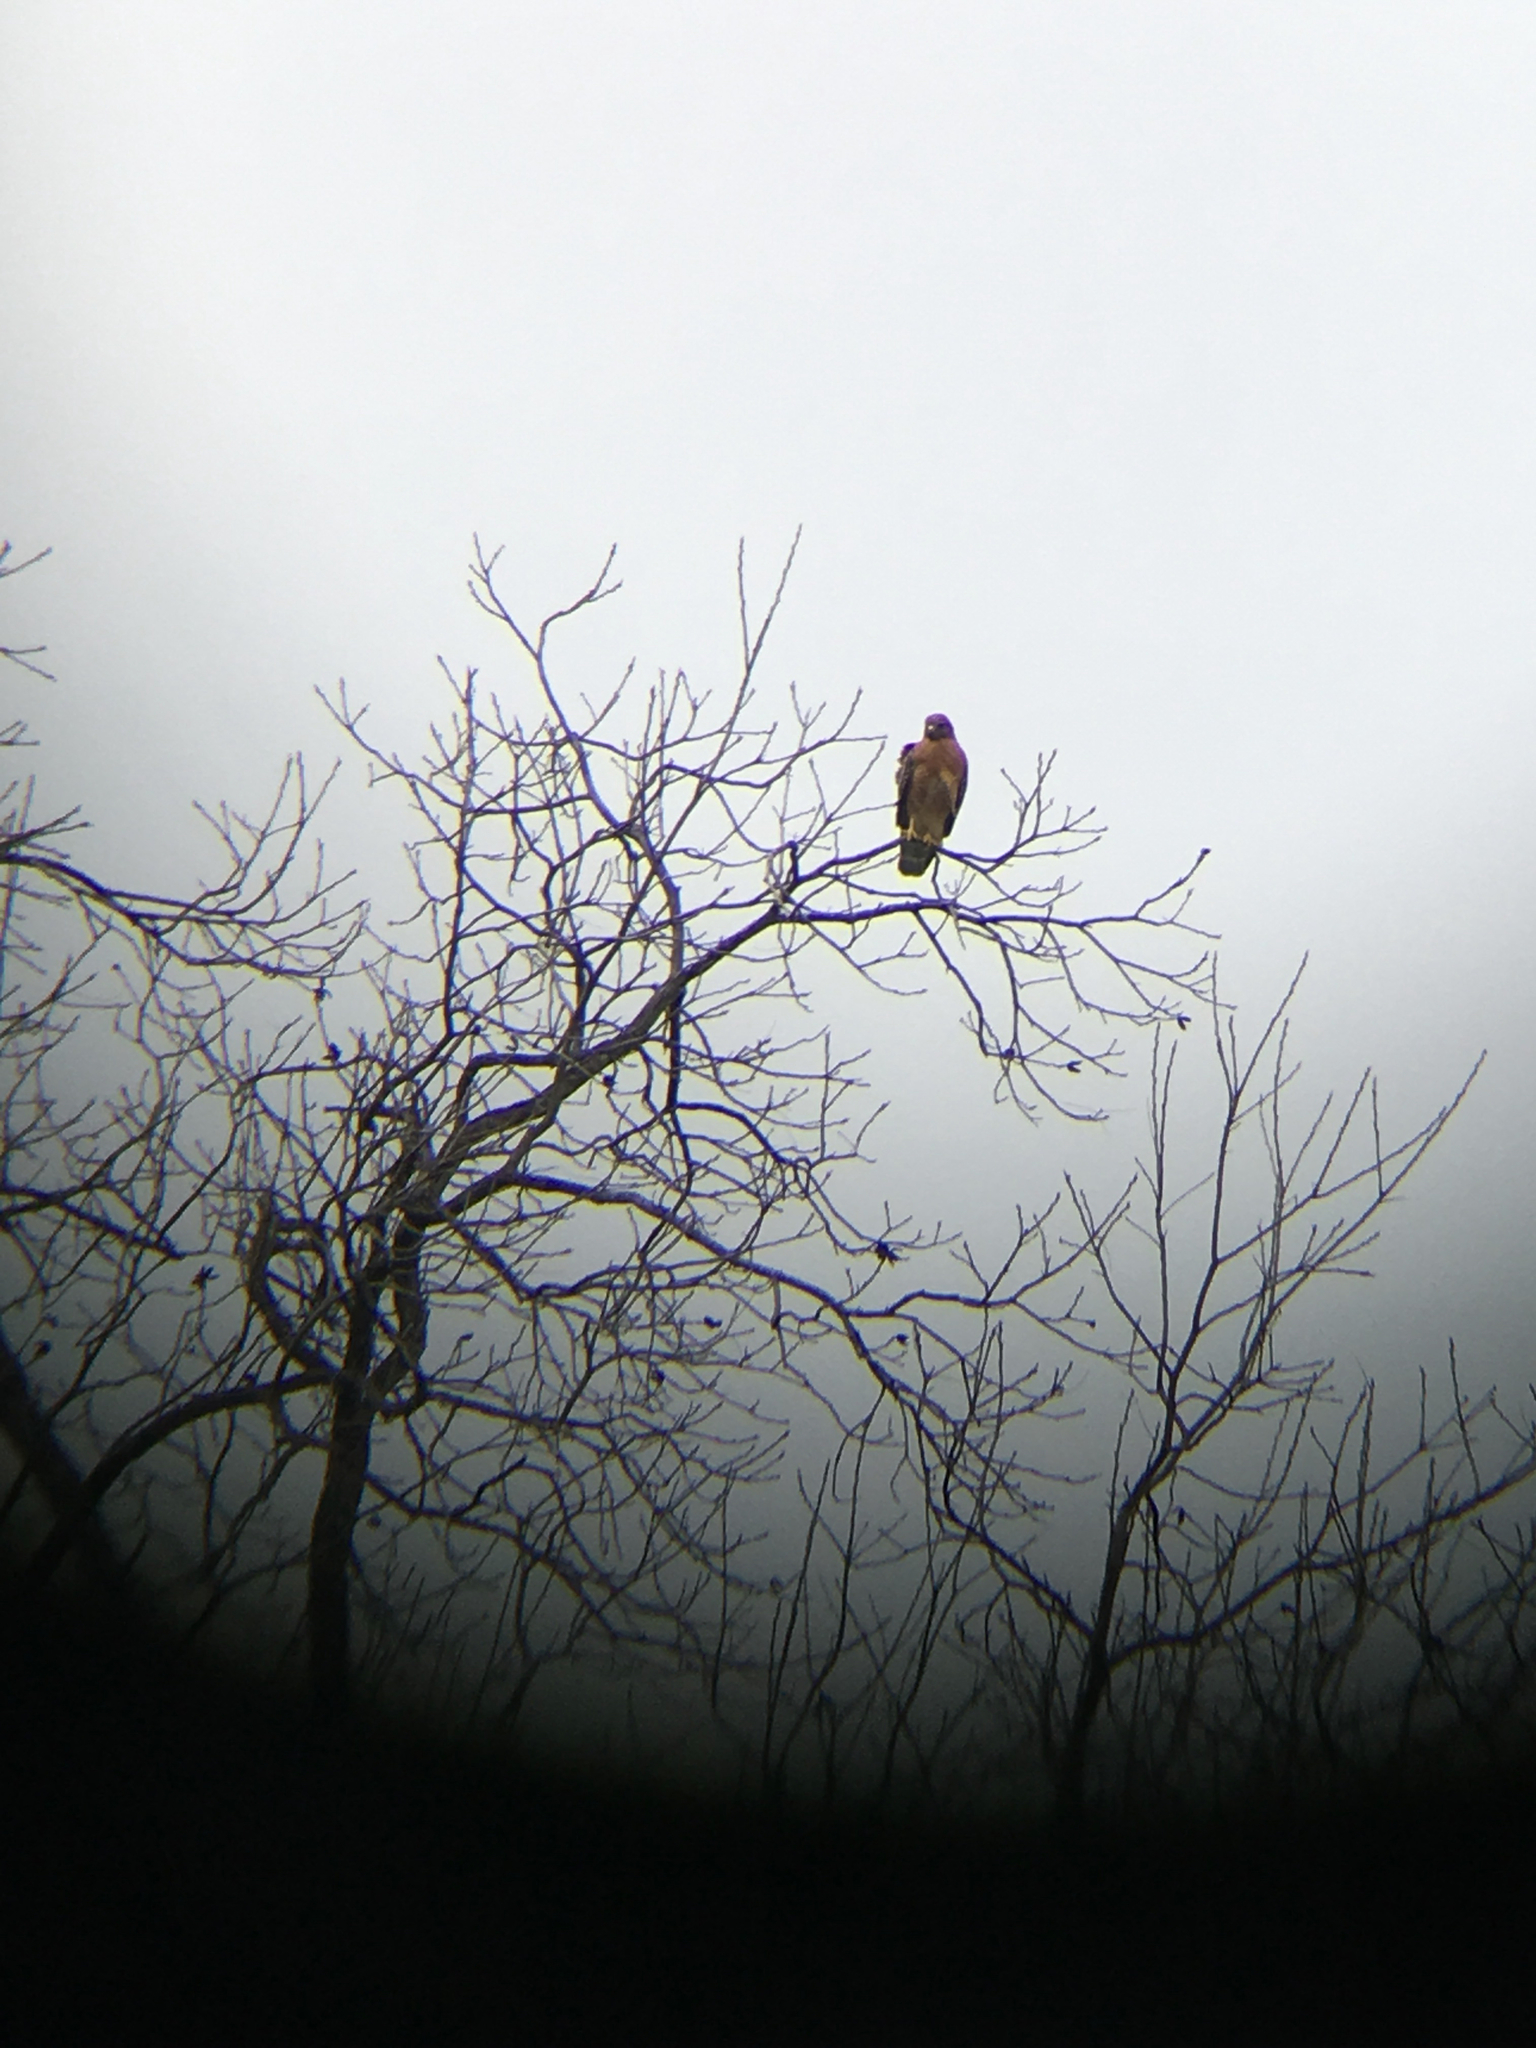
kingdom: Animalia
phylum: Chordata
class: Aves
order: Accipitriformes
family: Accipitridae
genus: Buteo
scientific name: Buteo lineatus
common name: Red-shouldered hawk
